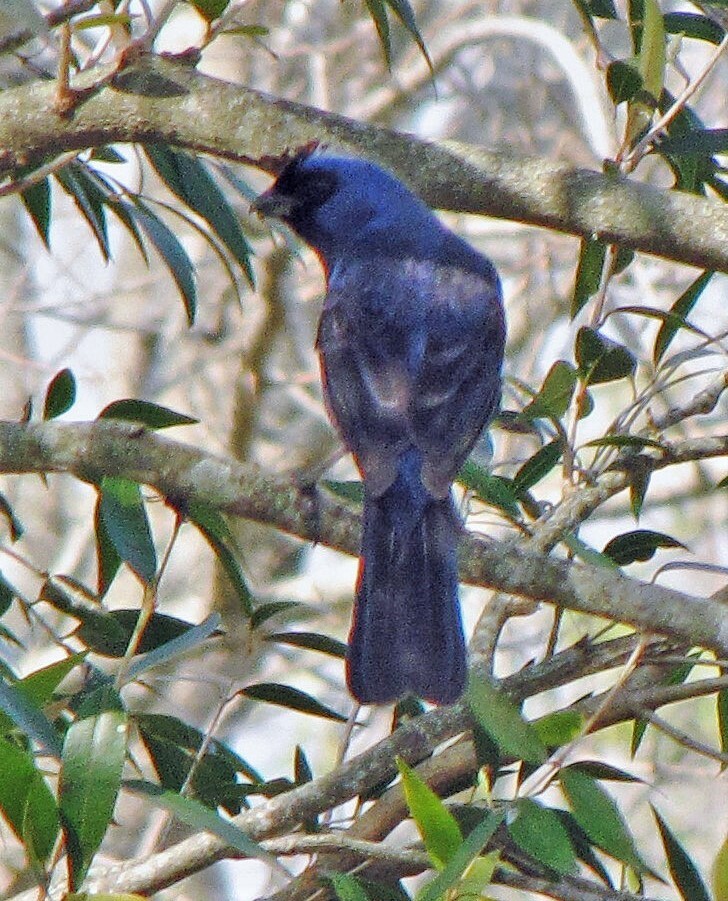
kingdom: Animalia
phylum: Chordata
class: Aves
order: Passeriformes
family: Thraupidae
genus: Stephanophorus
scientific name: Stephanophorus diadematus
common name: Diademed tanager
